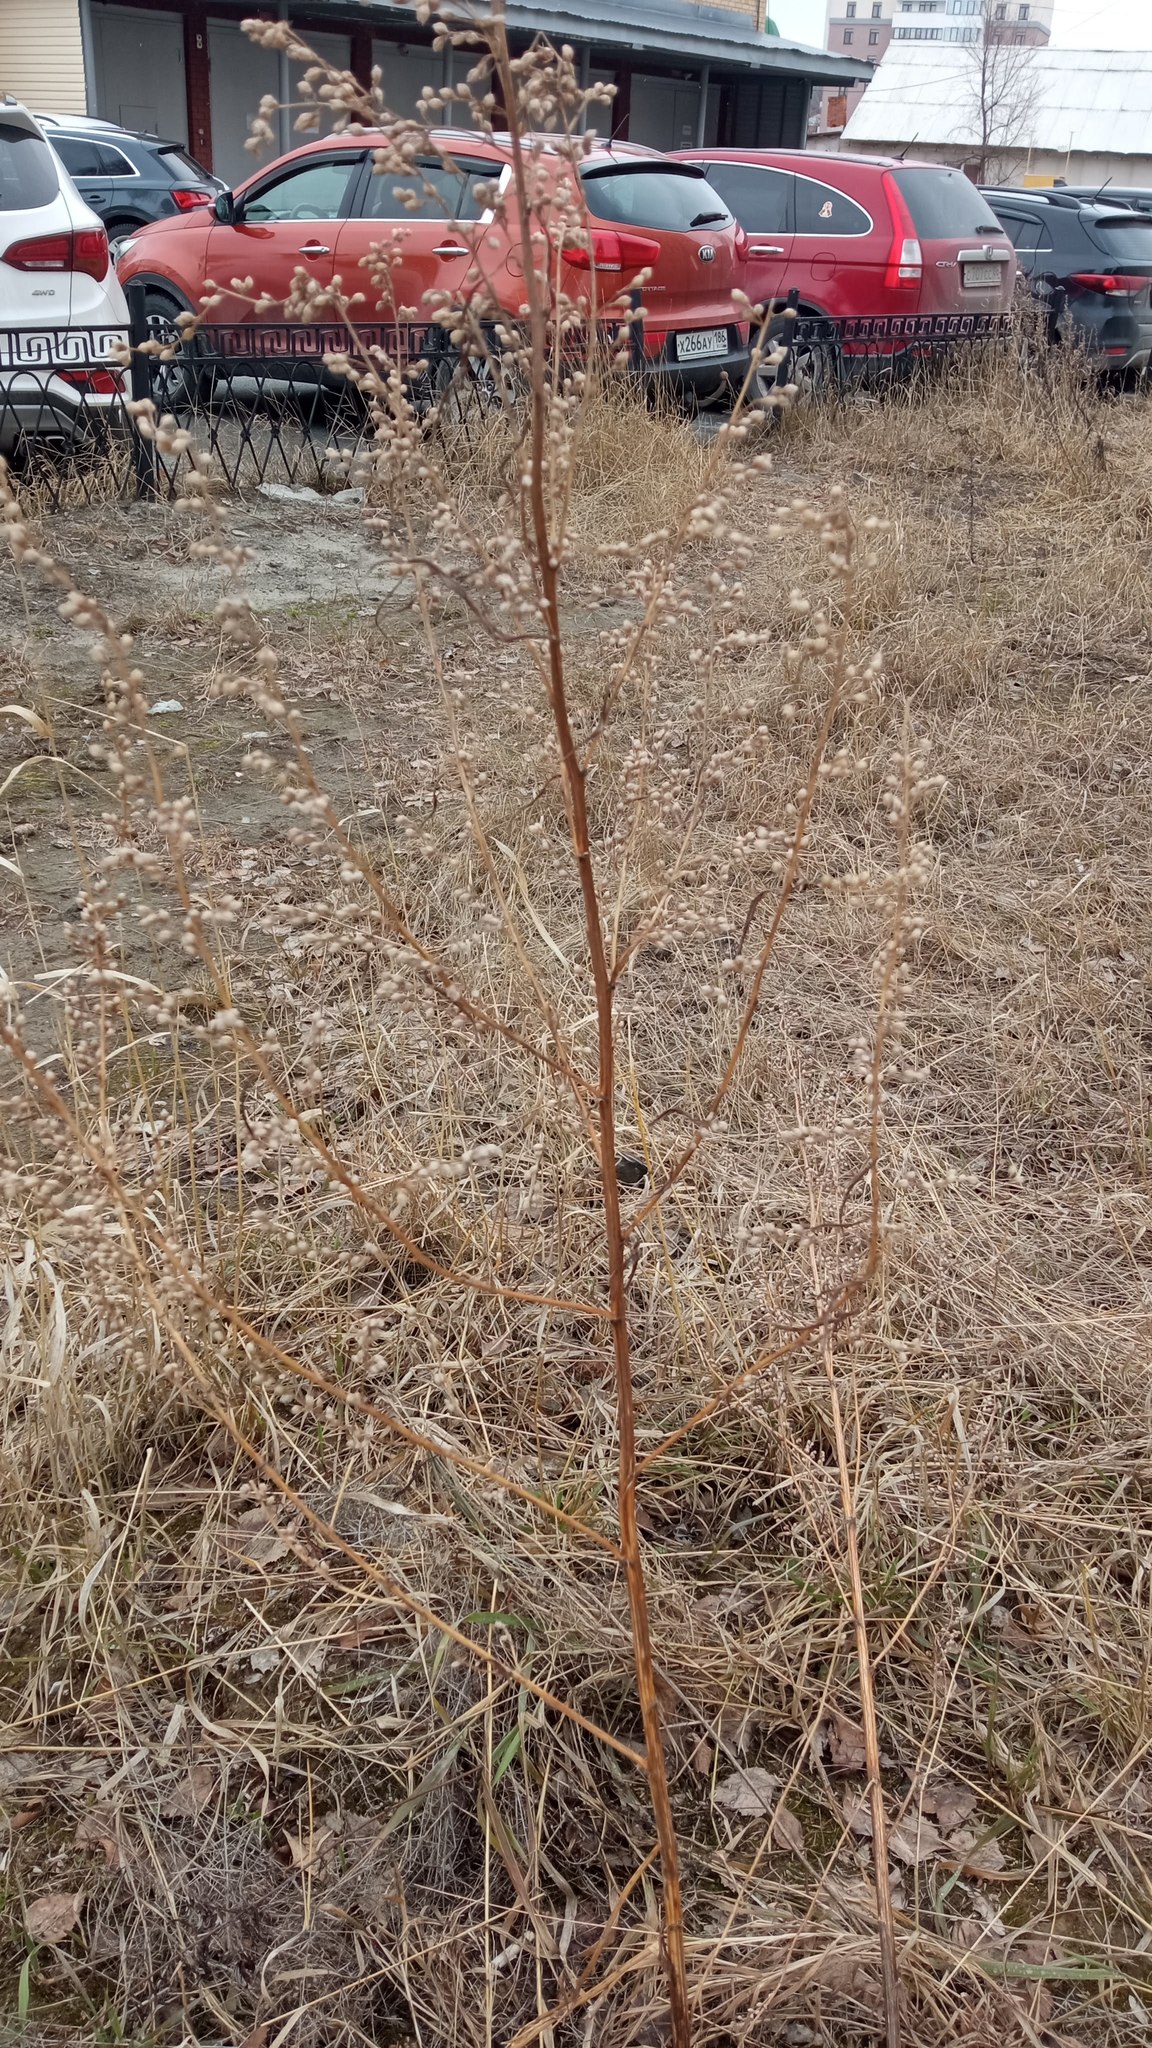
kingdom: Plantae
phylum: Tracheophyta
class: Magnoliopsida
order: Asterales
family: Asteraceae
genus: Artemisia
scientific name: Artemisia vulgaris
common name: Mugwort
